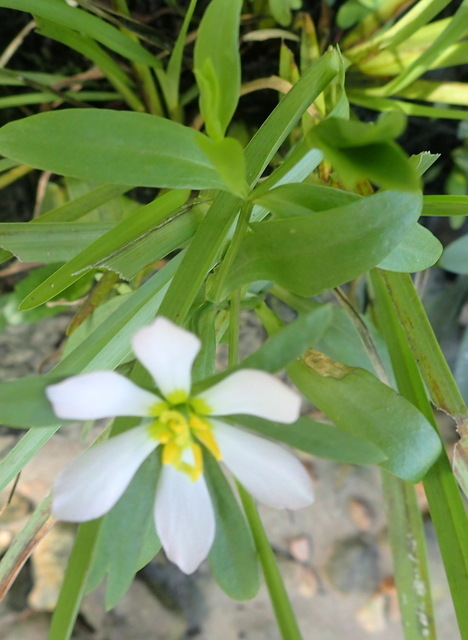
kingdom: Plantae
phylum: Tracheophyta
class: Magnoliopsida
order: Gentianales
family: Gentianaceae
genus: Sabatia
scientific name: Sabatia calycina
